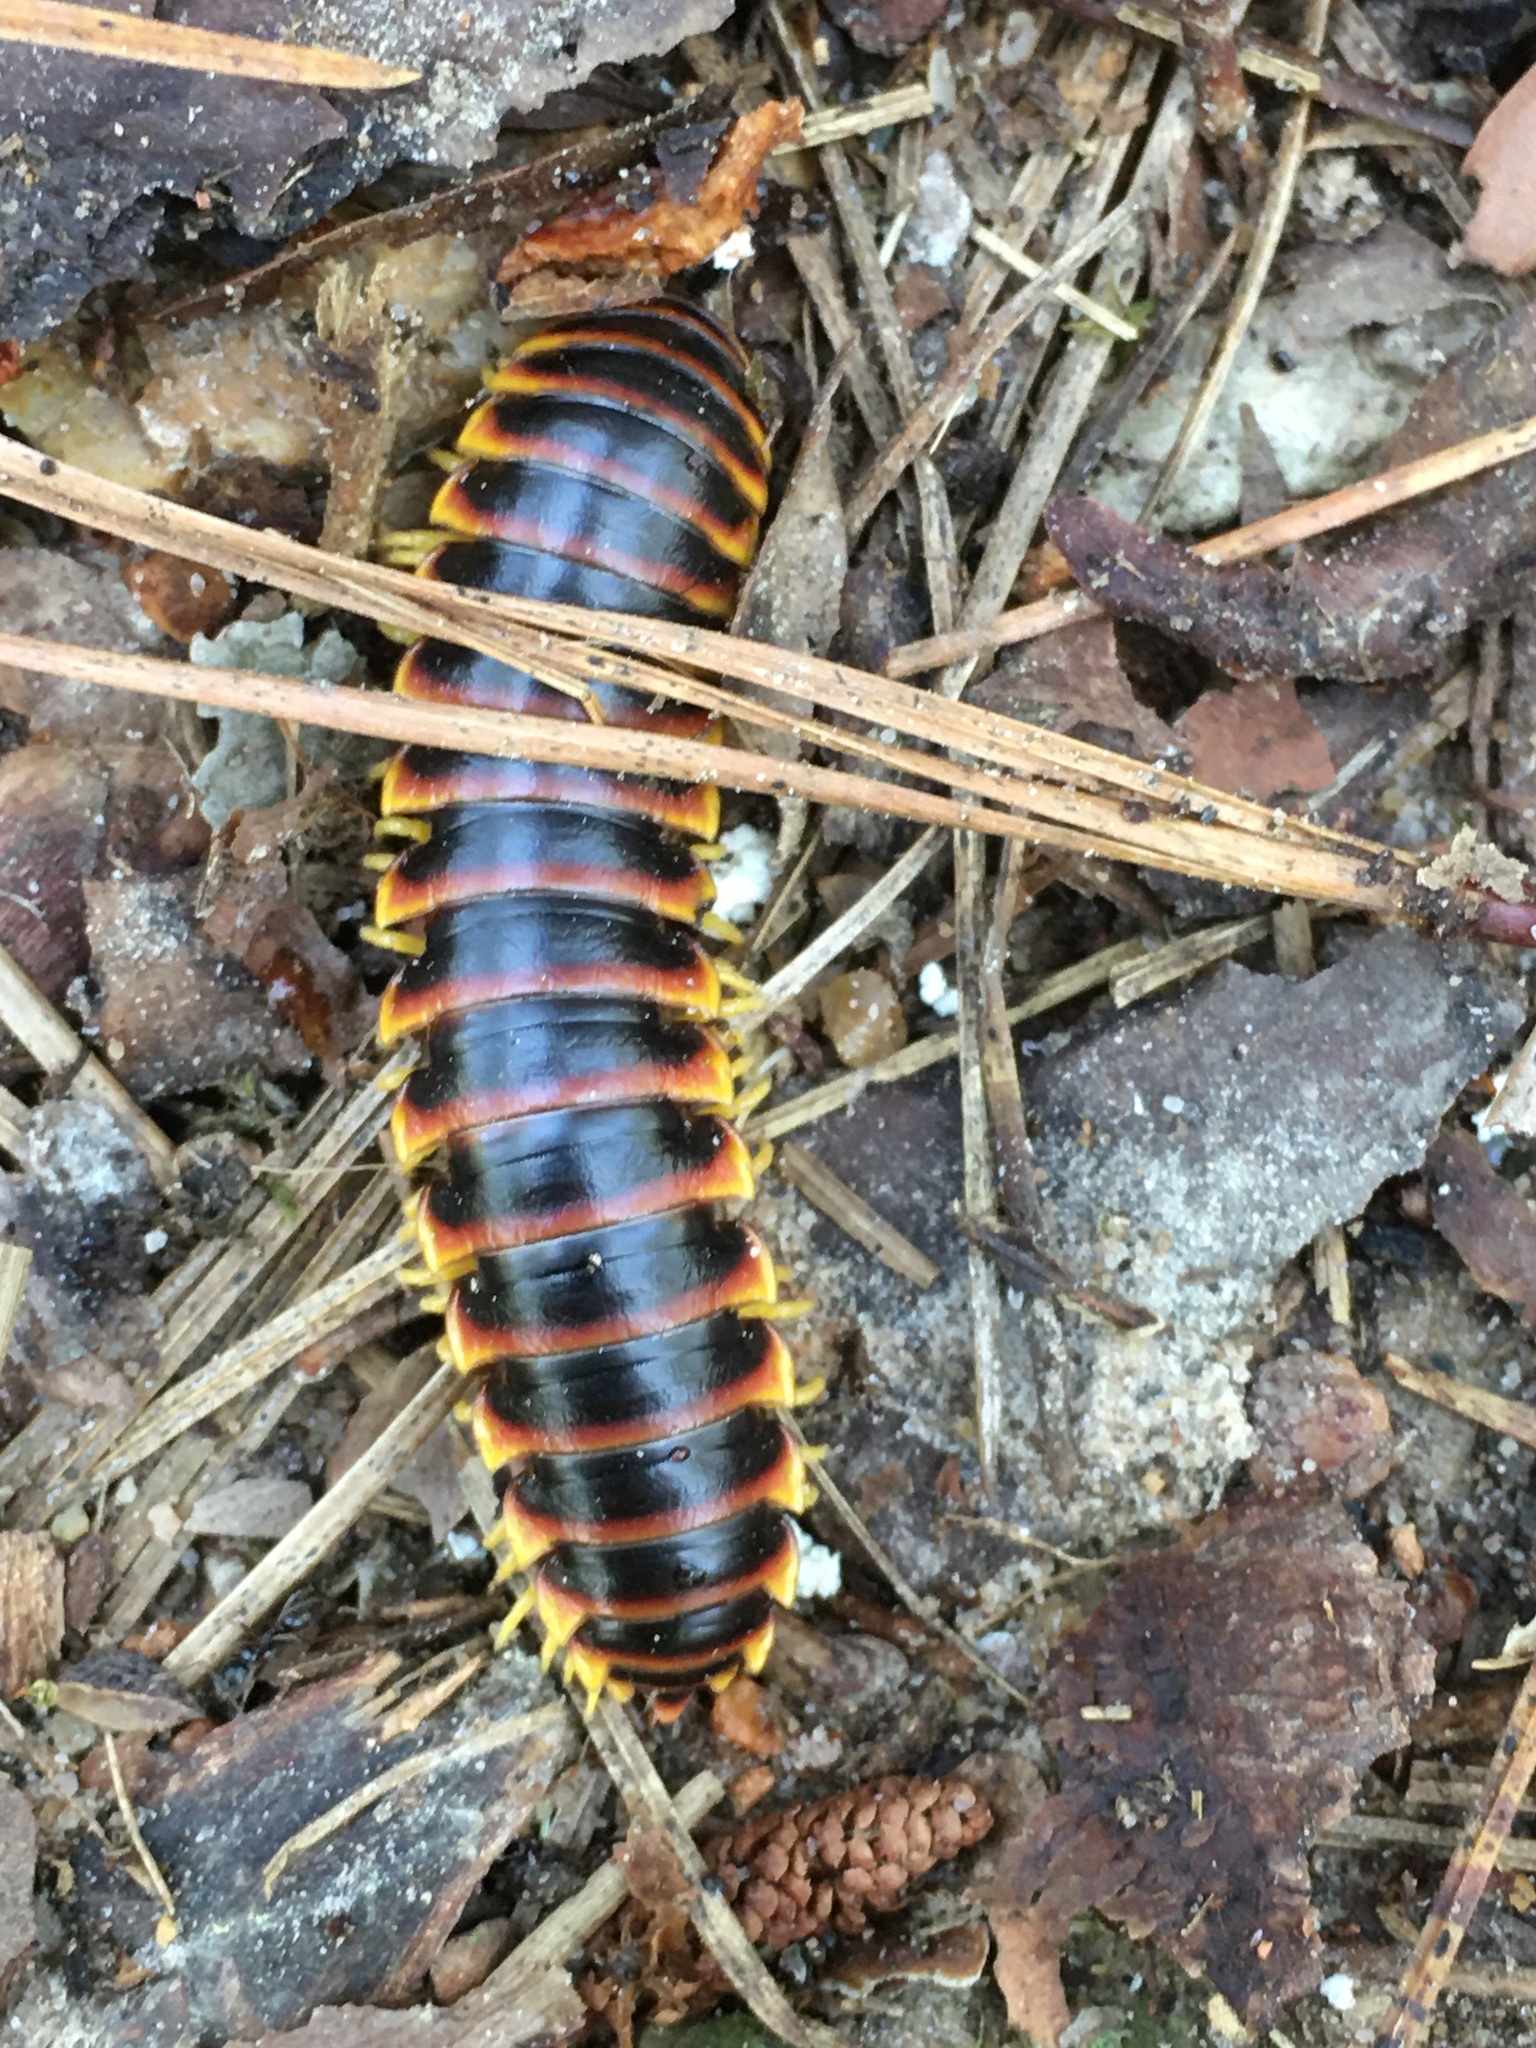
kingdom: Animalia
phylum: Arthropoda
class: Diplopoda
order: Polydesmida
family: Xystodesmidae
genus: Apheloria
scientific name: Apheloria virginiensis
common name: Black-and-gold flat millipede
